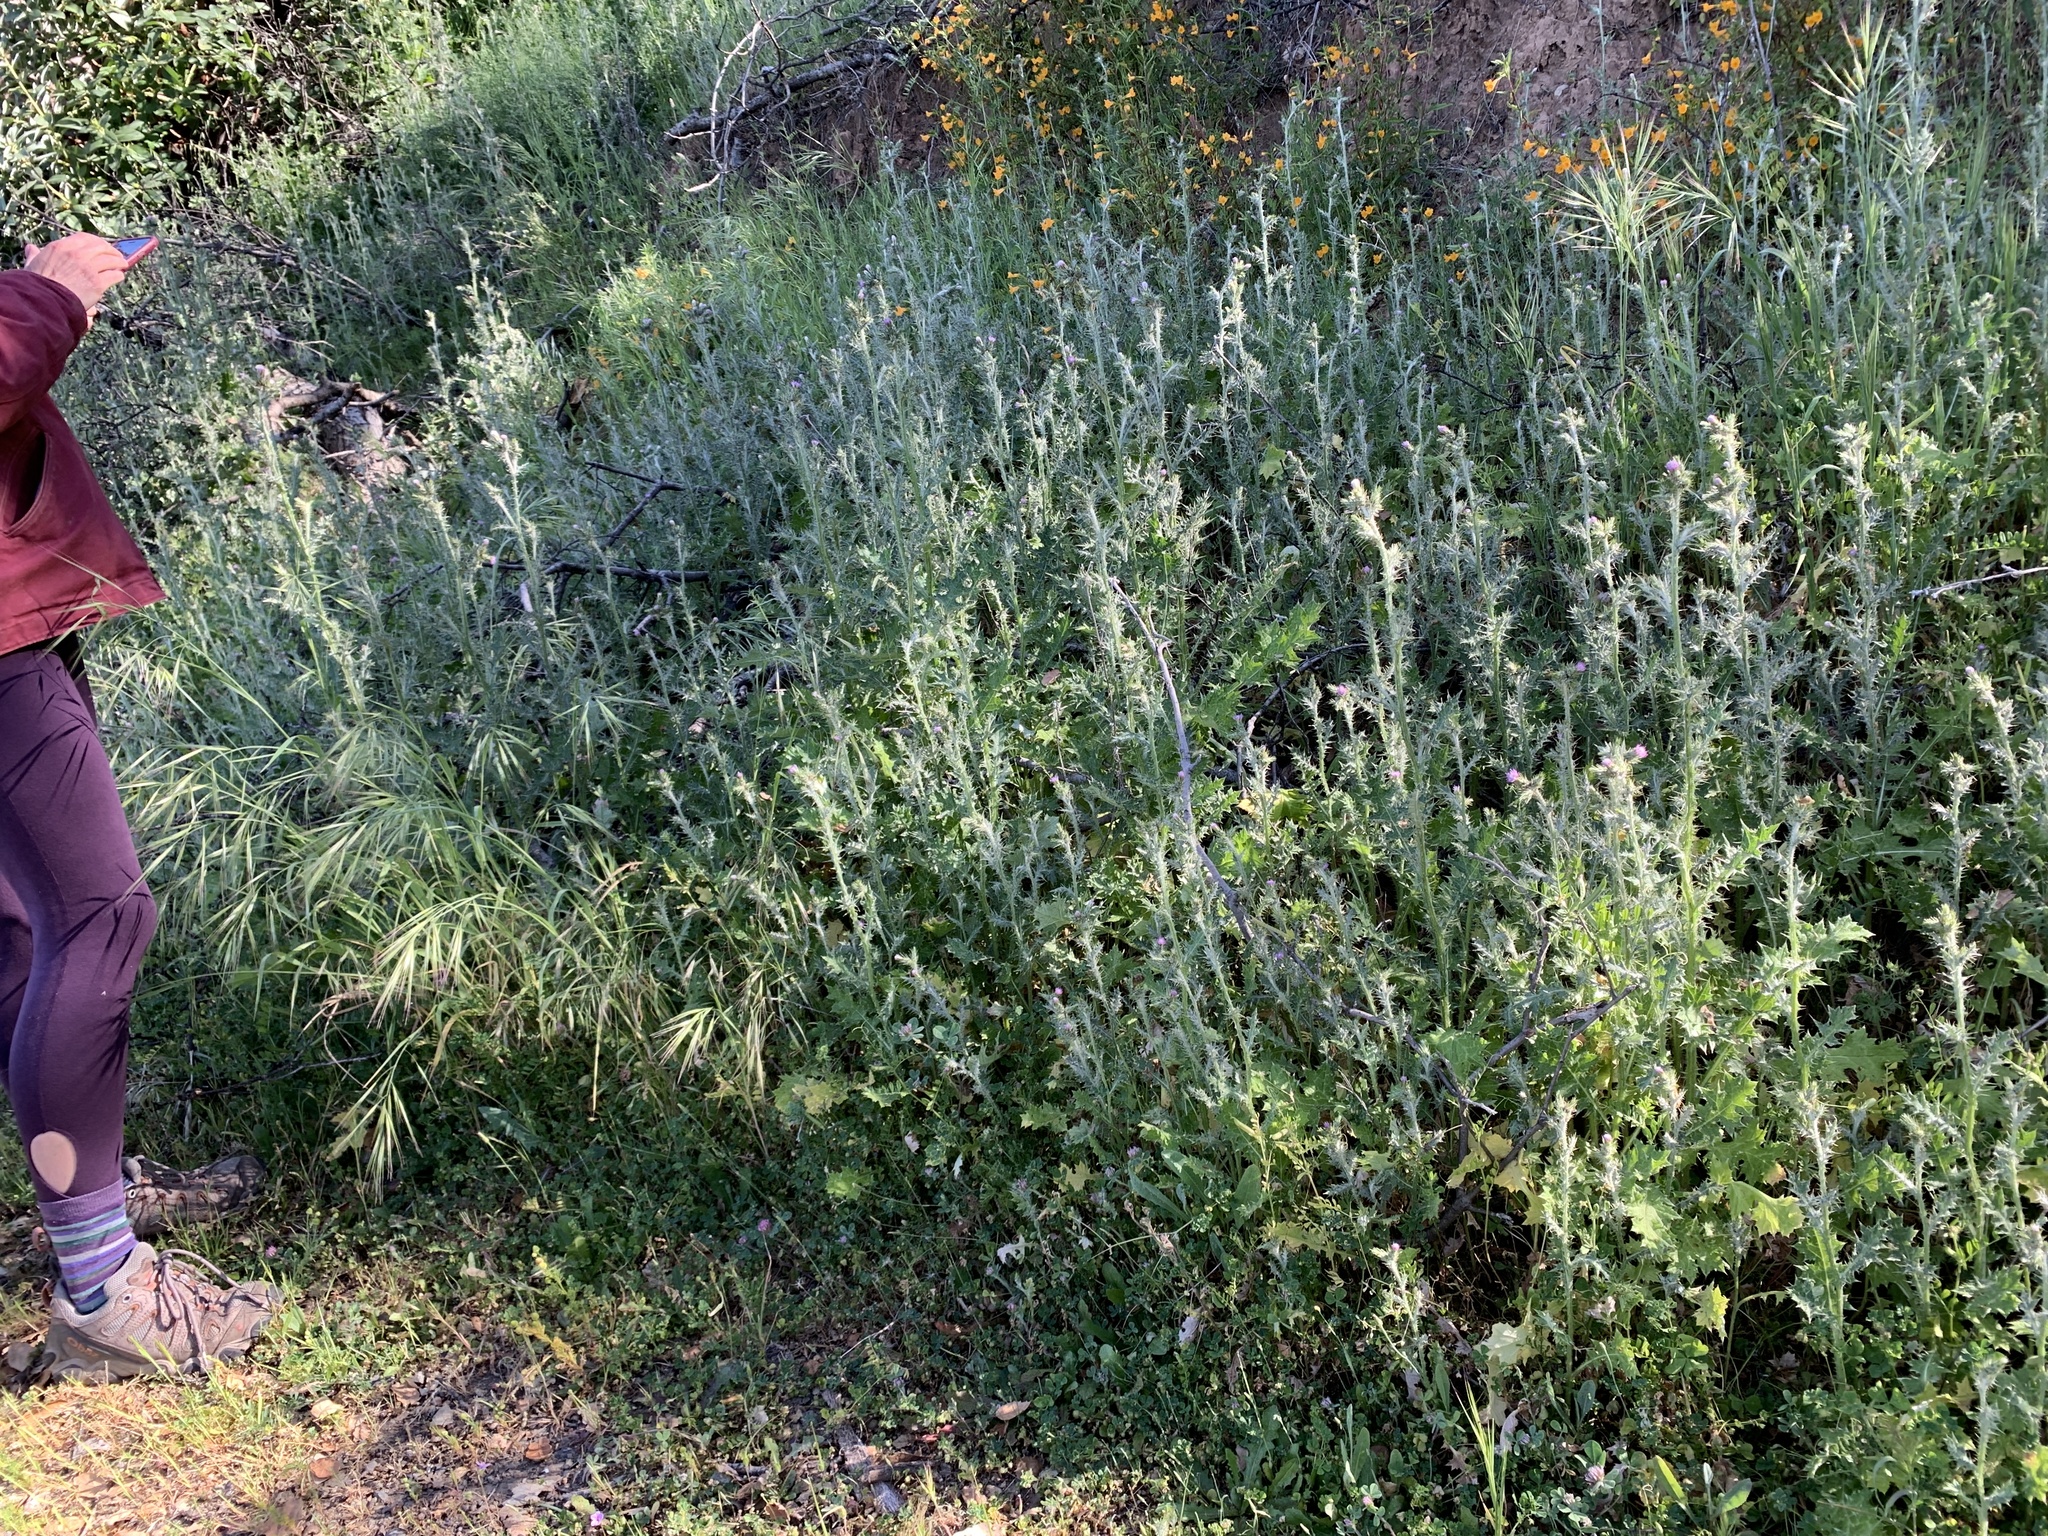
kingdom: Plantae
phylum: Tracheophyta
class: Magnoliopsida
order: Asterales
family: Asteraceae
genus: Carduus
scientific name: Carduus pycnocephalus
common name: Plymouth thistle
